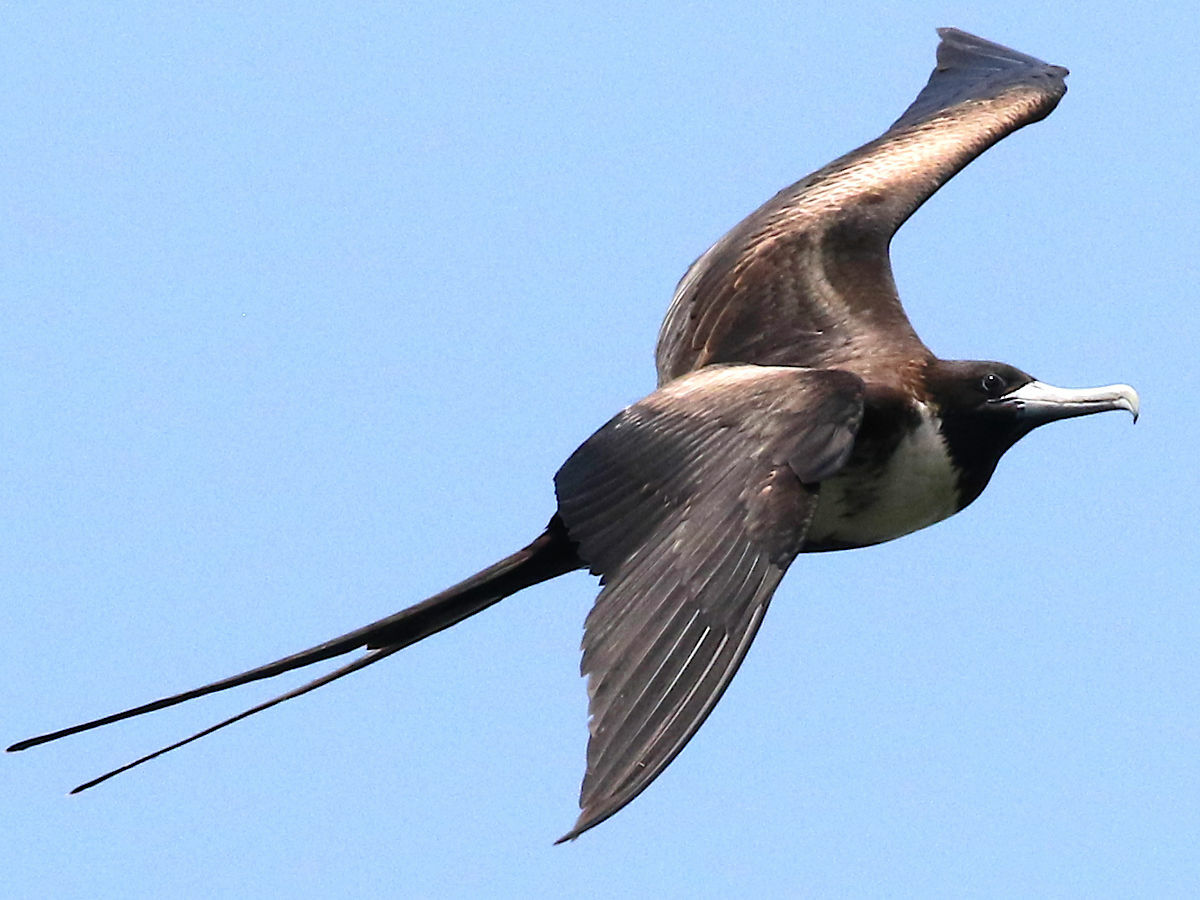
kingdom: Animalia
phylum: Chordata
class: Aves
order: Suliformes
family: Fregatidae
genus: Fregata
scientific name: Fregata magnificens
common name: Magnificent frigatebird
